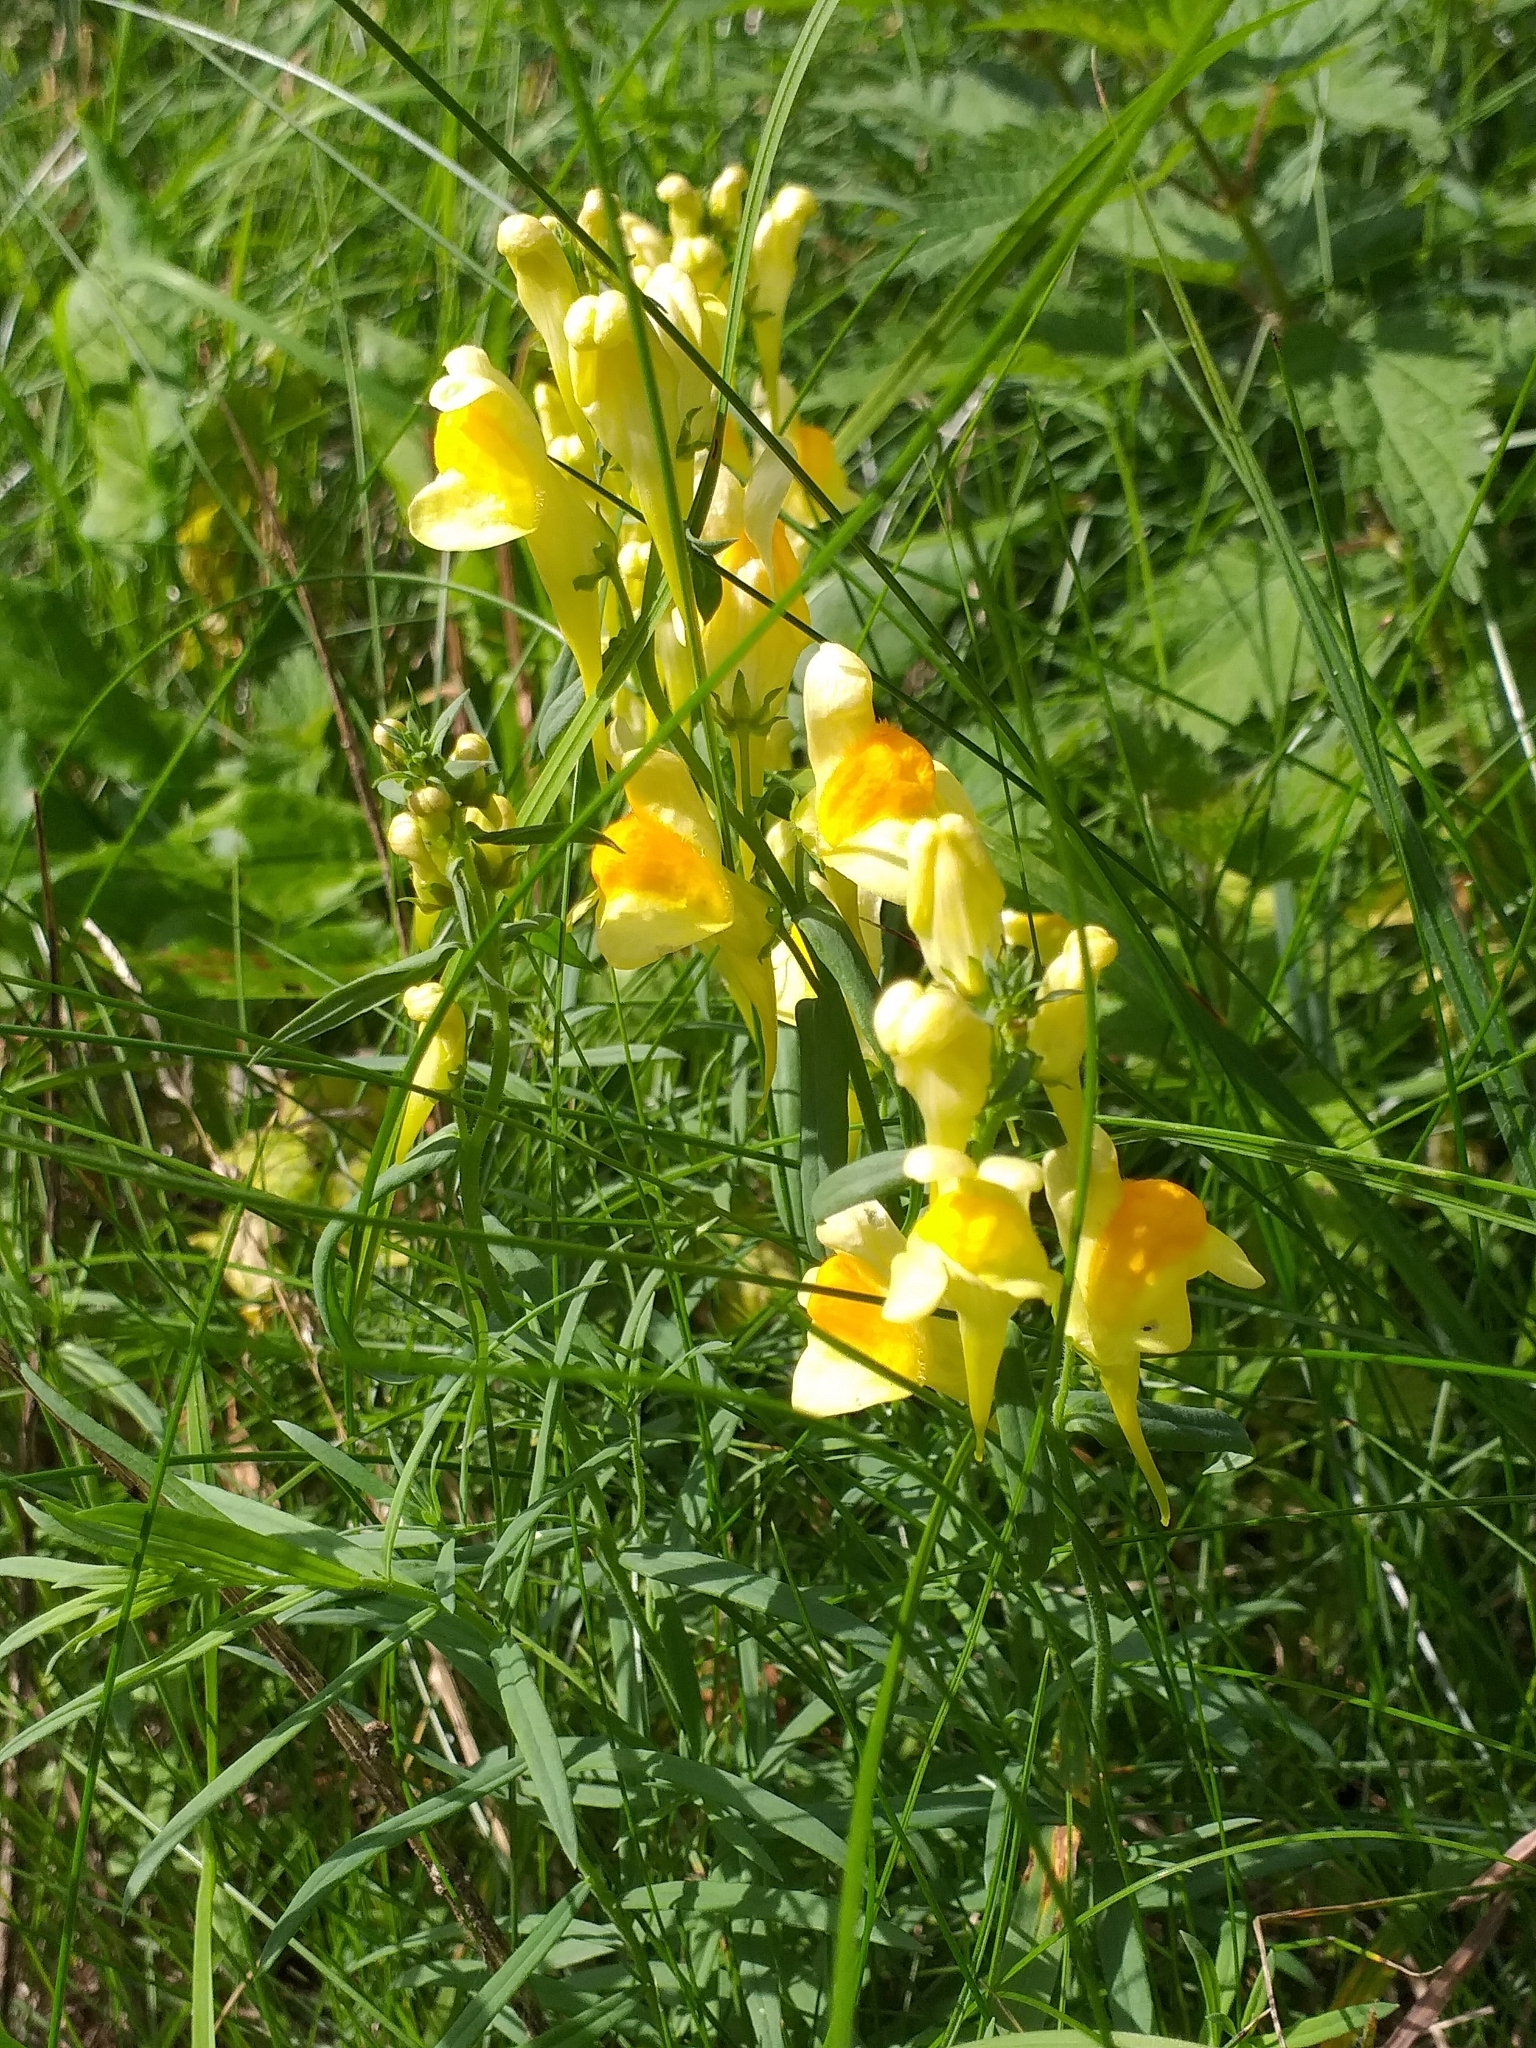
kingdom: Plantae
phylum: Tracheophyta
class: Magnoliopsida
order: Lamiales
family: Plantaginaceae
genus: Linaria
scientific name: Linaria vulgaris
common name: Butter and eggs
